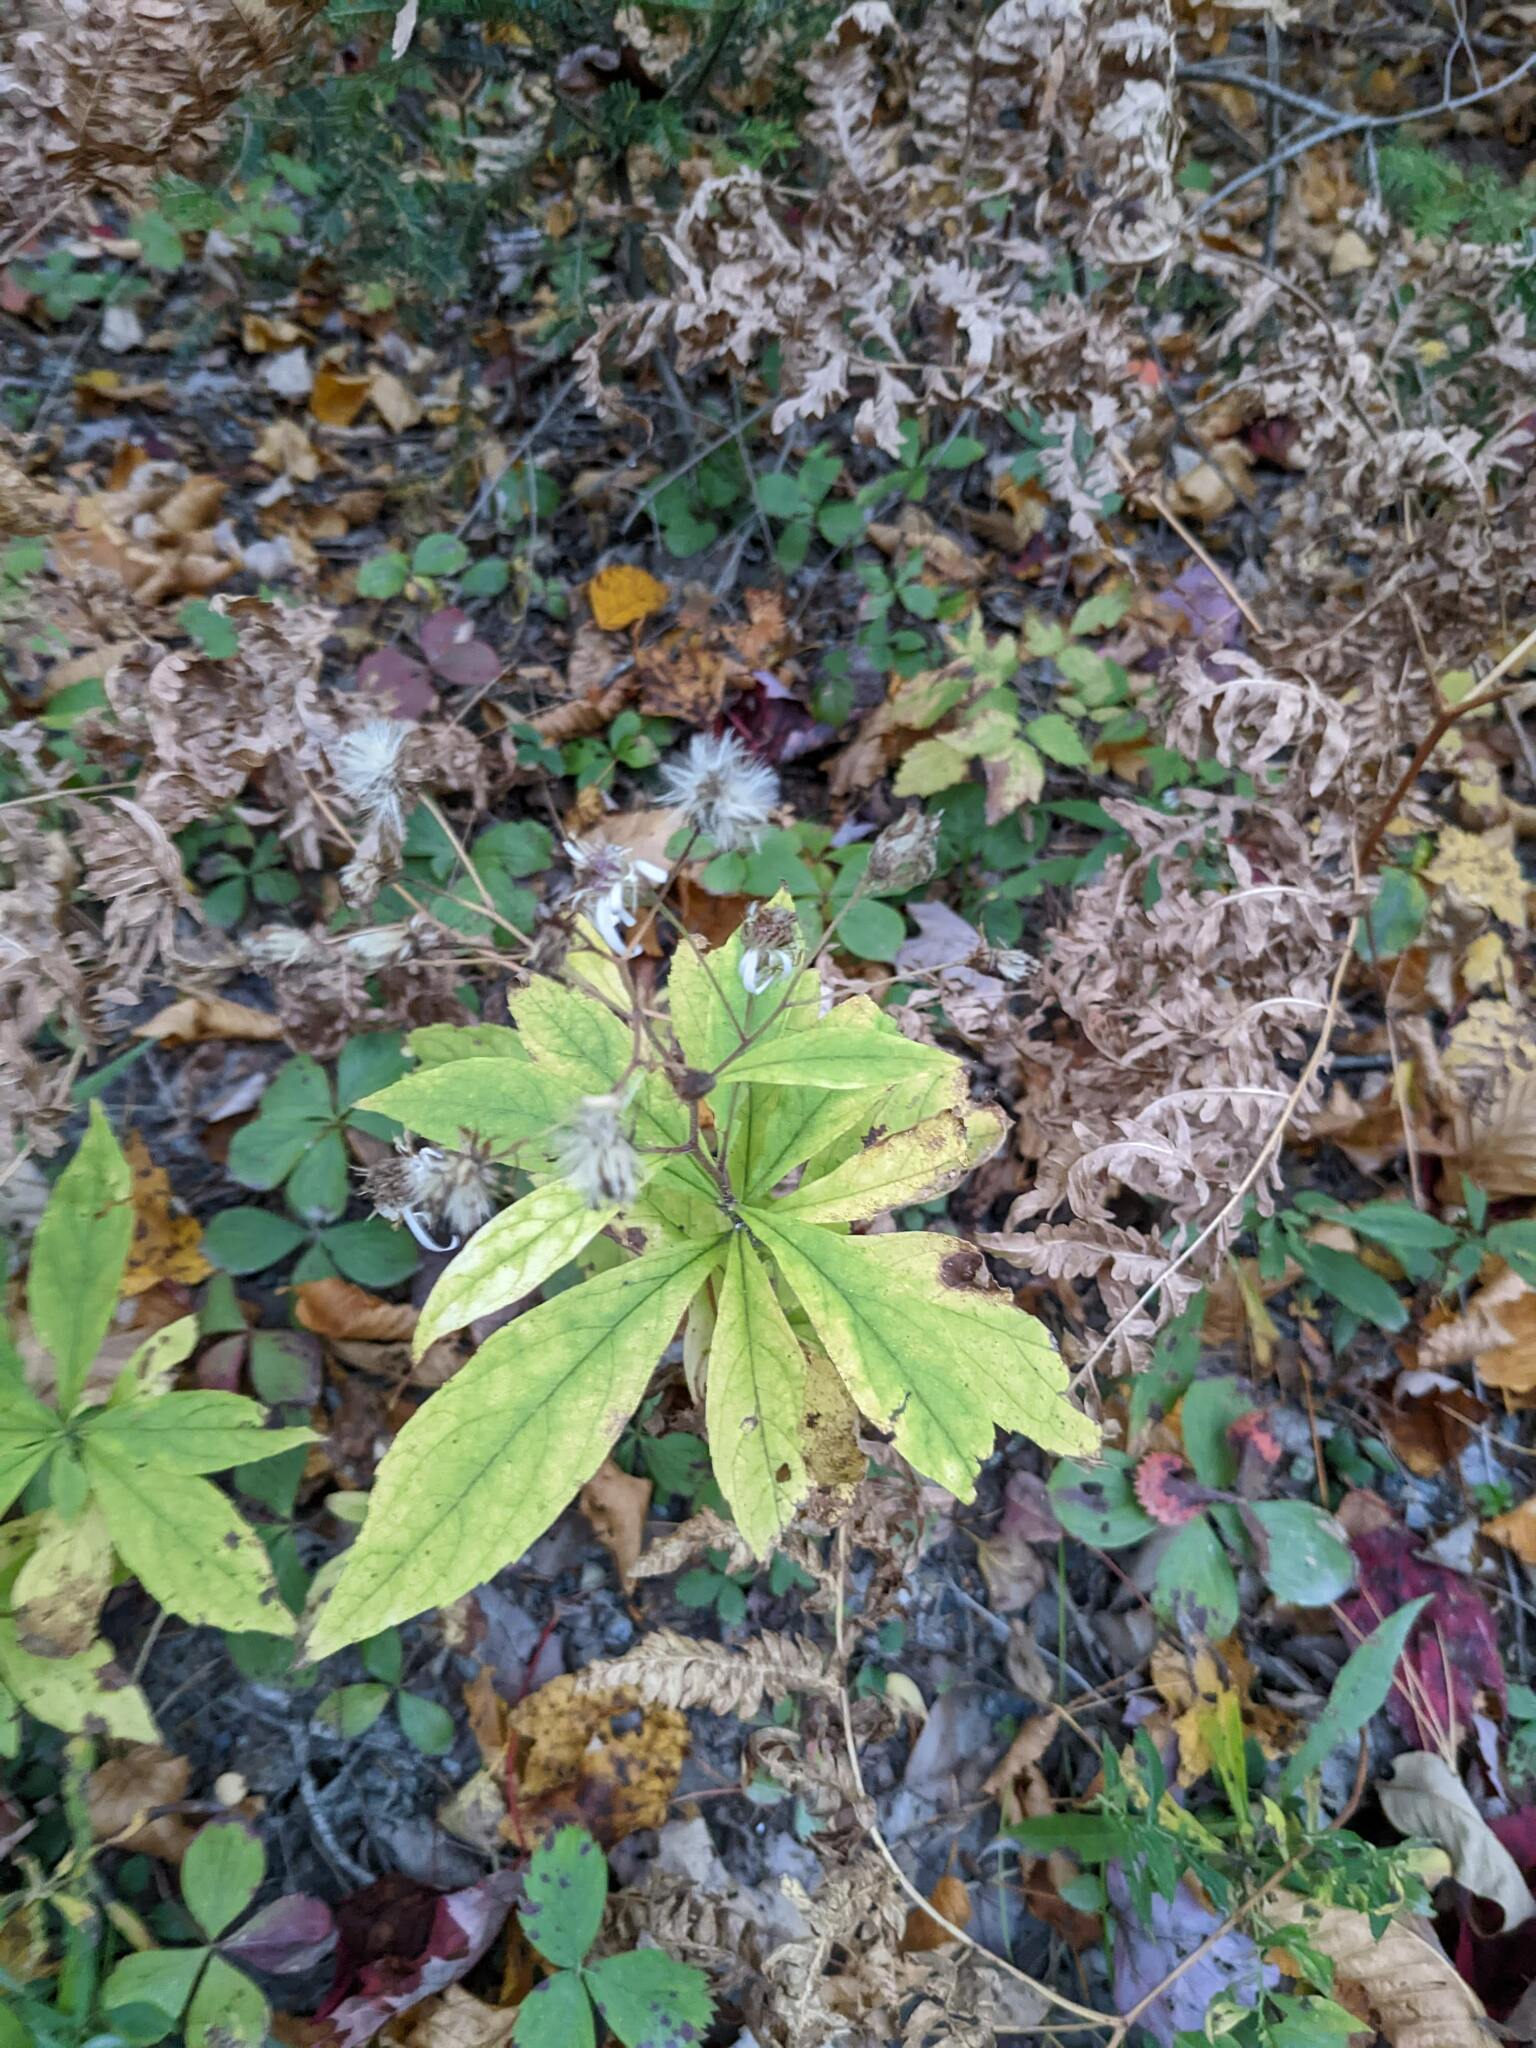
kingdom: Plantae
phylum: Tracheophyta
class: Magnoliopsida
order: Asterales
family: Asteraceae
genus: Oclemena
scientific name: Oclemena acuminata
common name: Mountain aster
